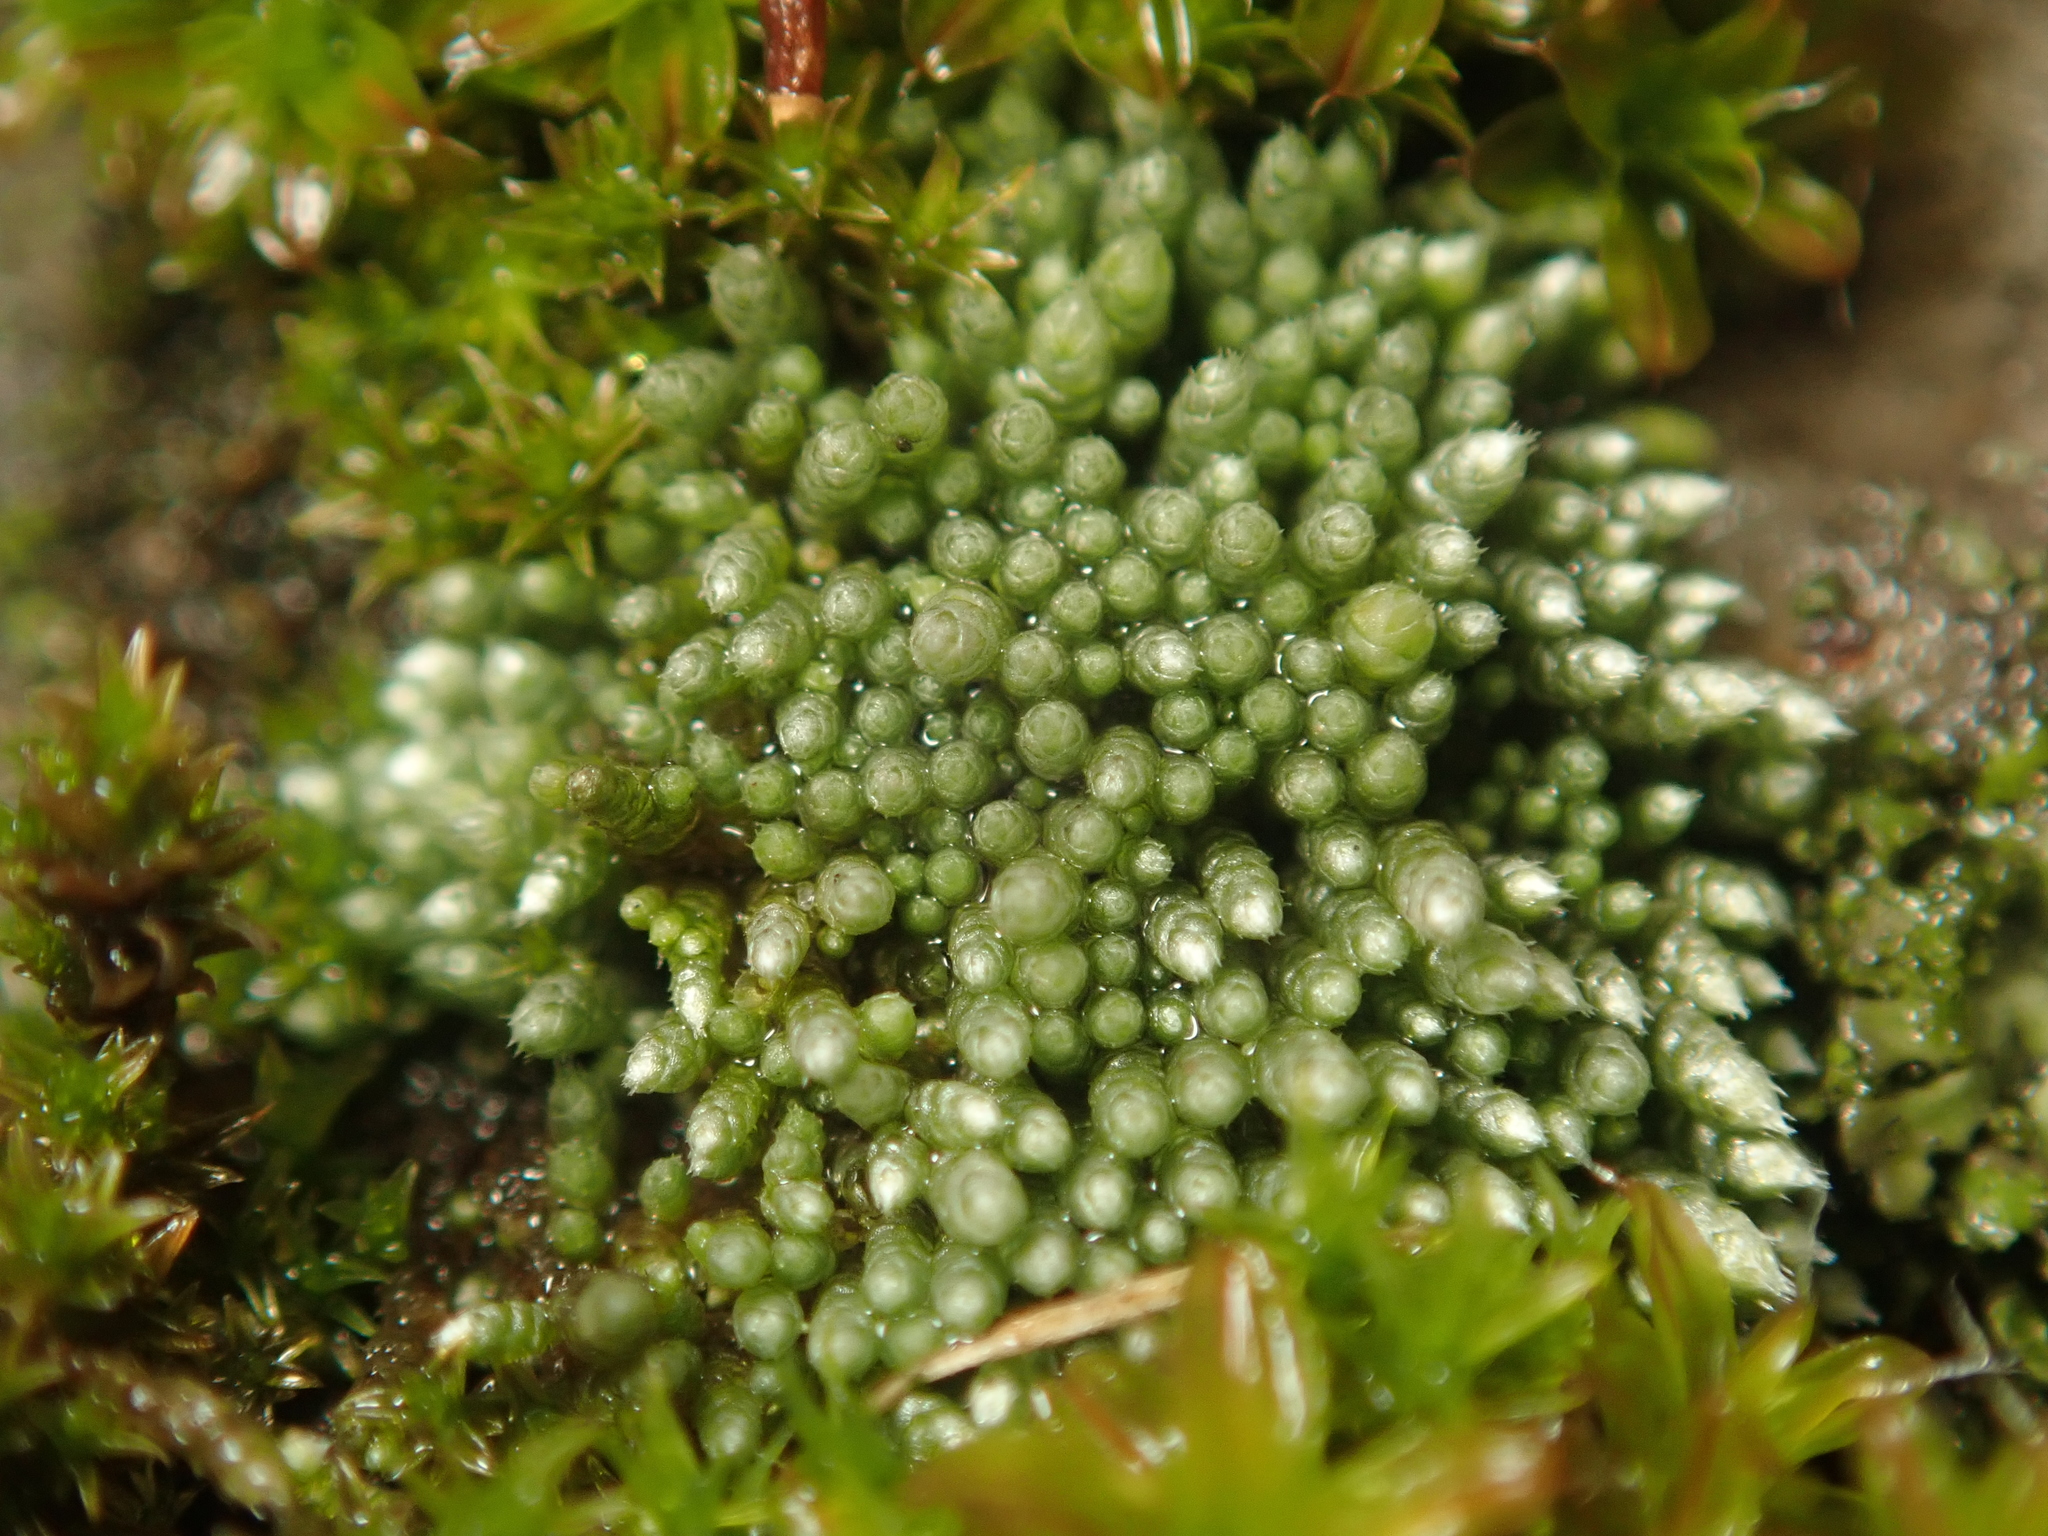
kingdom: Plantae
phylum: Bryophyta
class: Bryopsida
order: Bryales
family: Bryaceae
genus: Bryum
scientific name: Bryum argenteum
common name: Silver-moss
